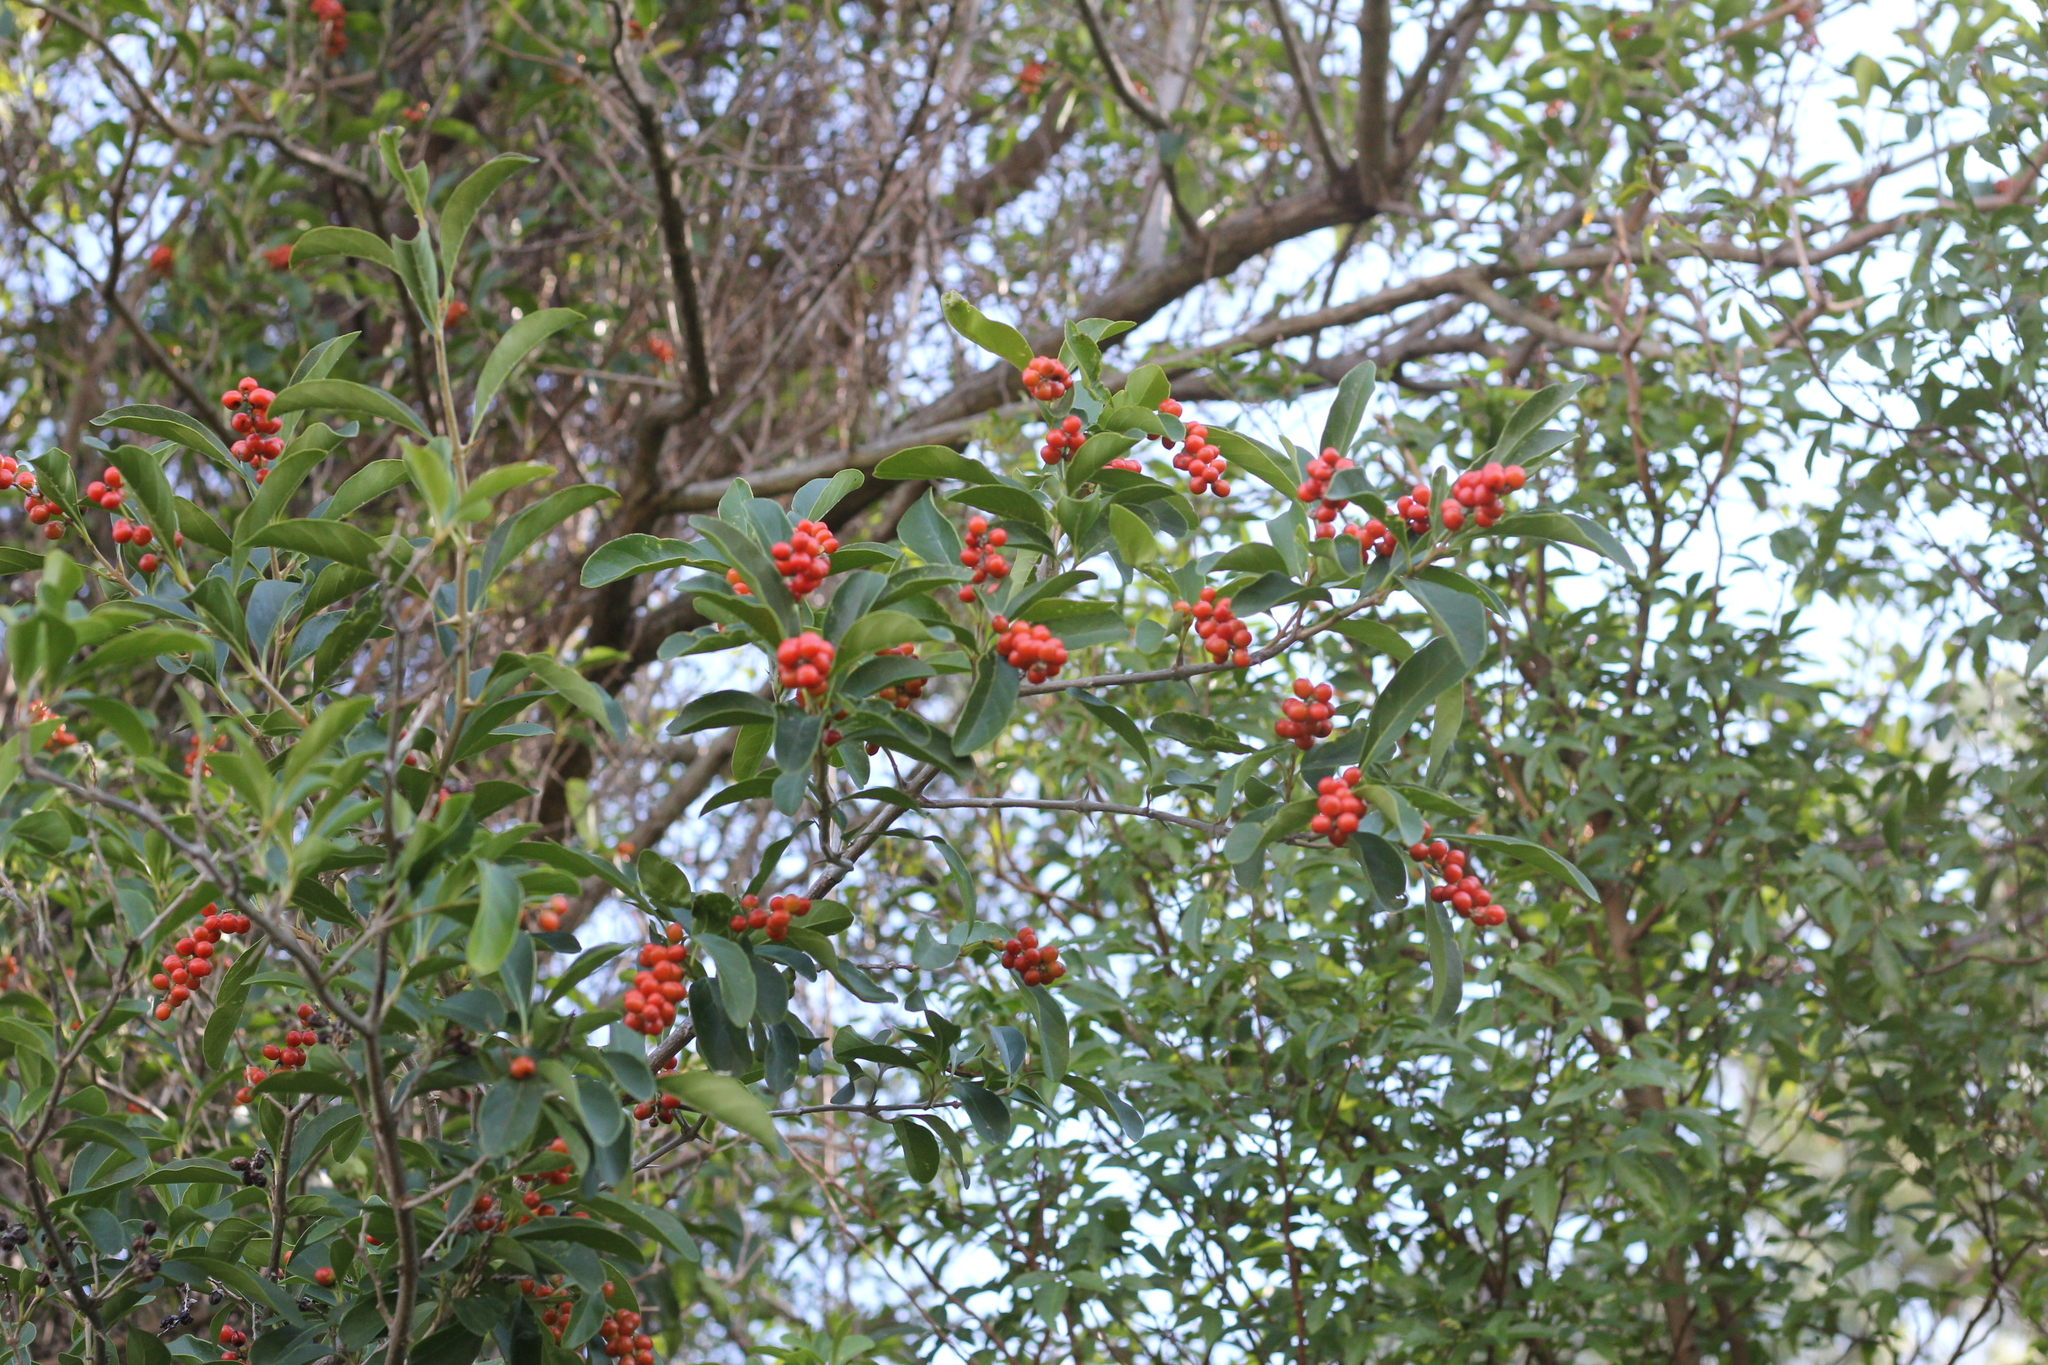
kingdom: Plantae
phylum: Tracheophyta
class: Magnoliopsida
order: Lamiales
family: Verbenaceae
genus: Citharexylum
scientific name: Citharexylum montevidense
